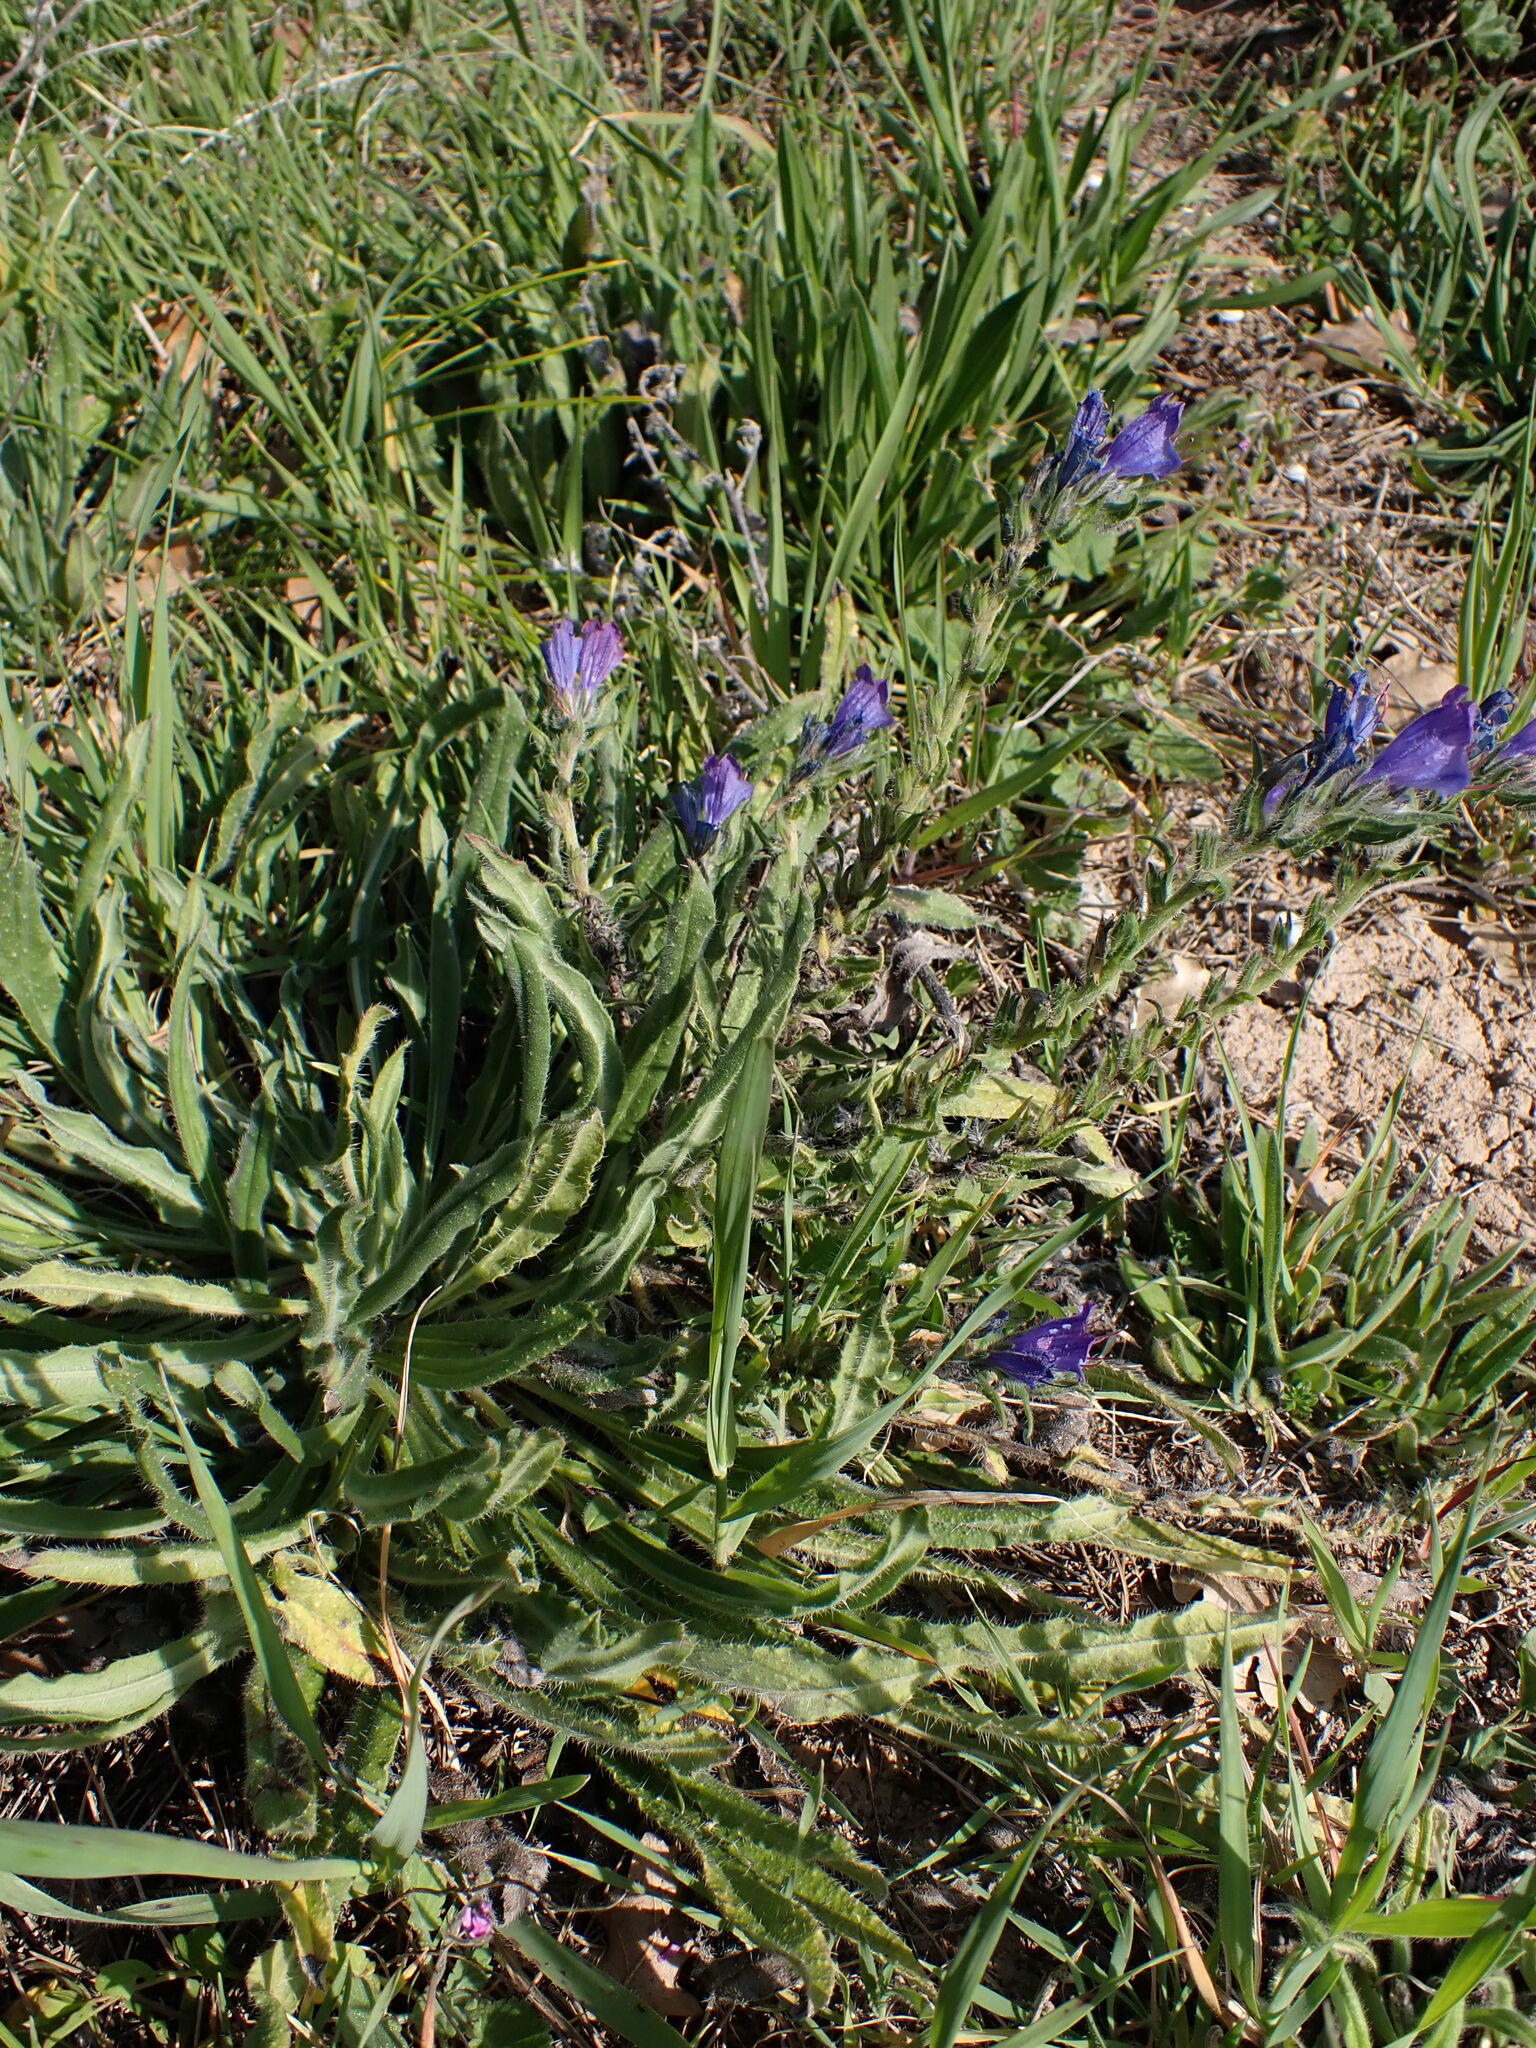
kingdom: Plantae
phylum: Tracheophyta
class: Magnoliopsida
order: Boraginales
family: Boraginaceae
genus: Echium
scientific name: Echium vulgare
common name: Common viper's bugloss
